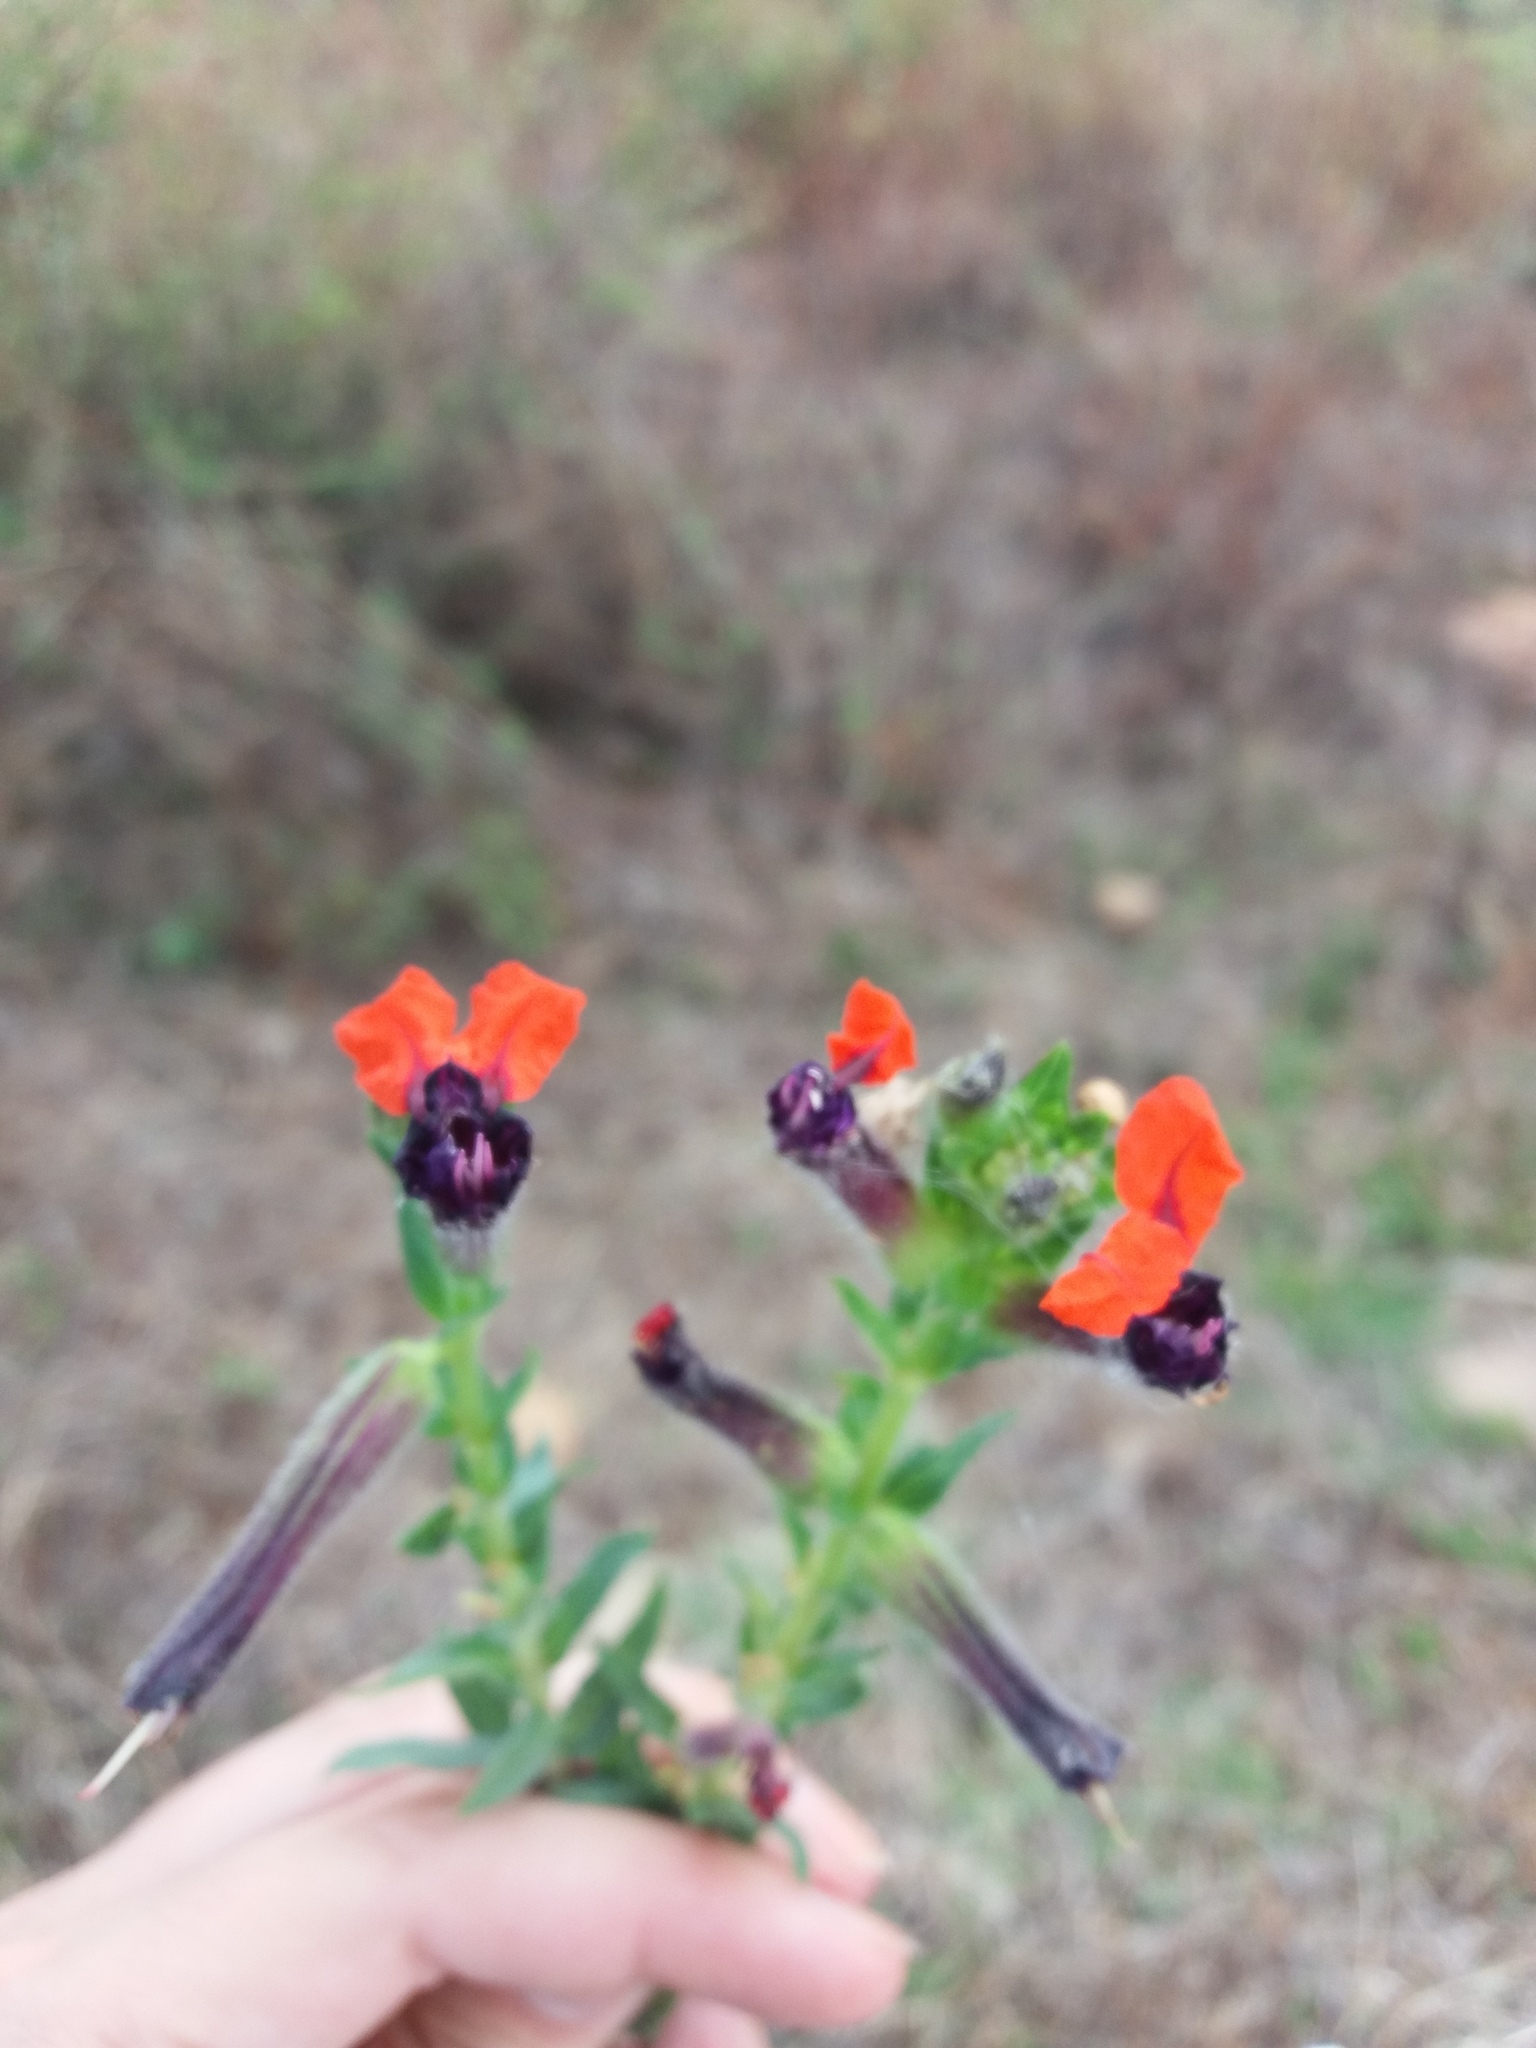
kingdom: Plantae
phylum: Tracheophyta
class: Magnoliopsida
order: Myrtales
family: Lythraceae
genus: Cuphea
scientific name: Cuphea llavea
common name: Tiny-mice
